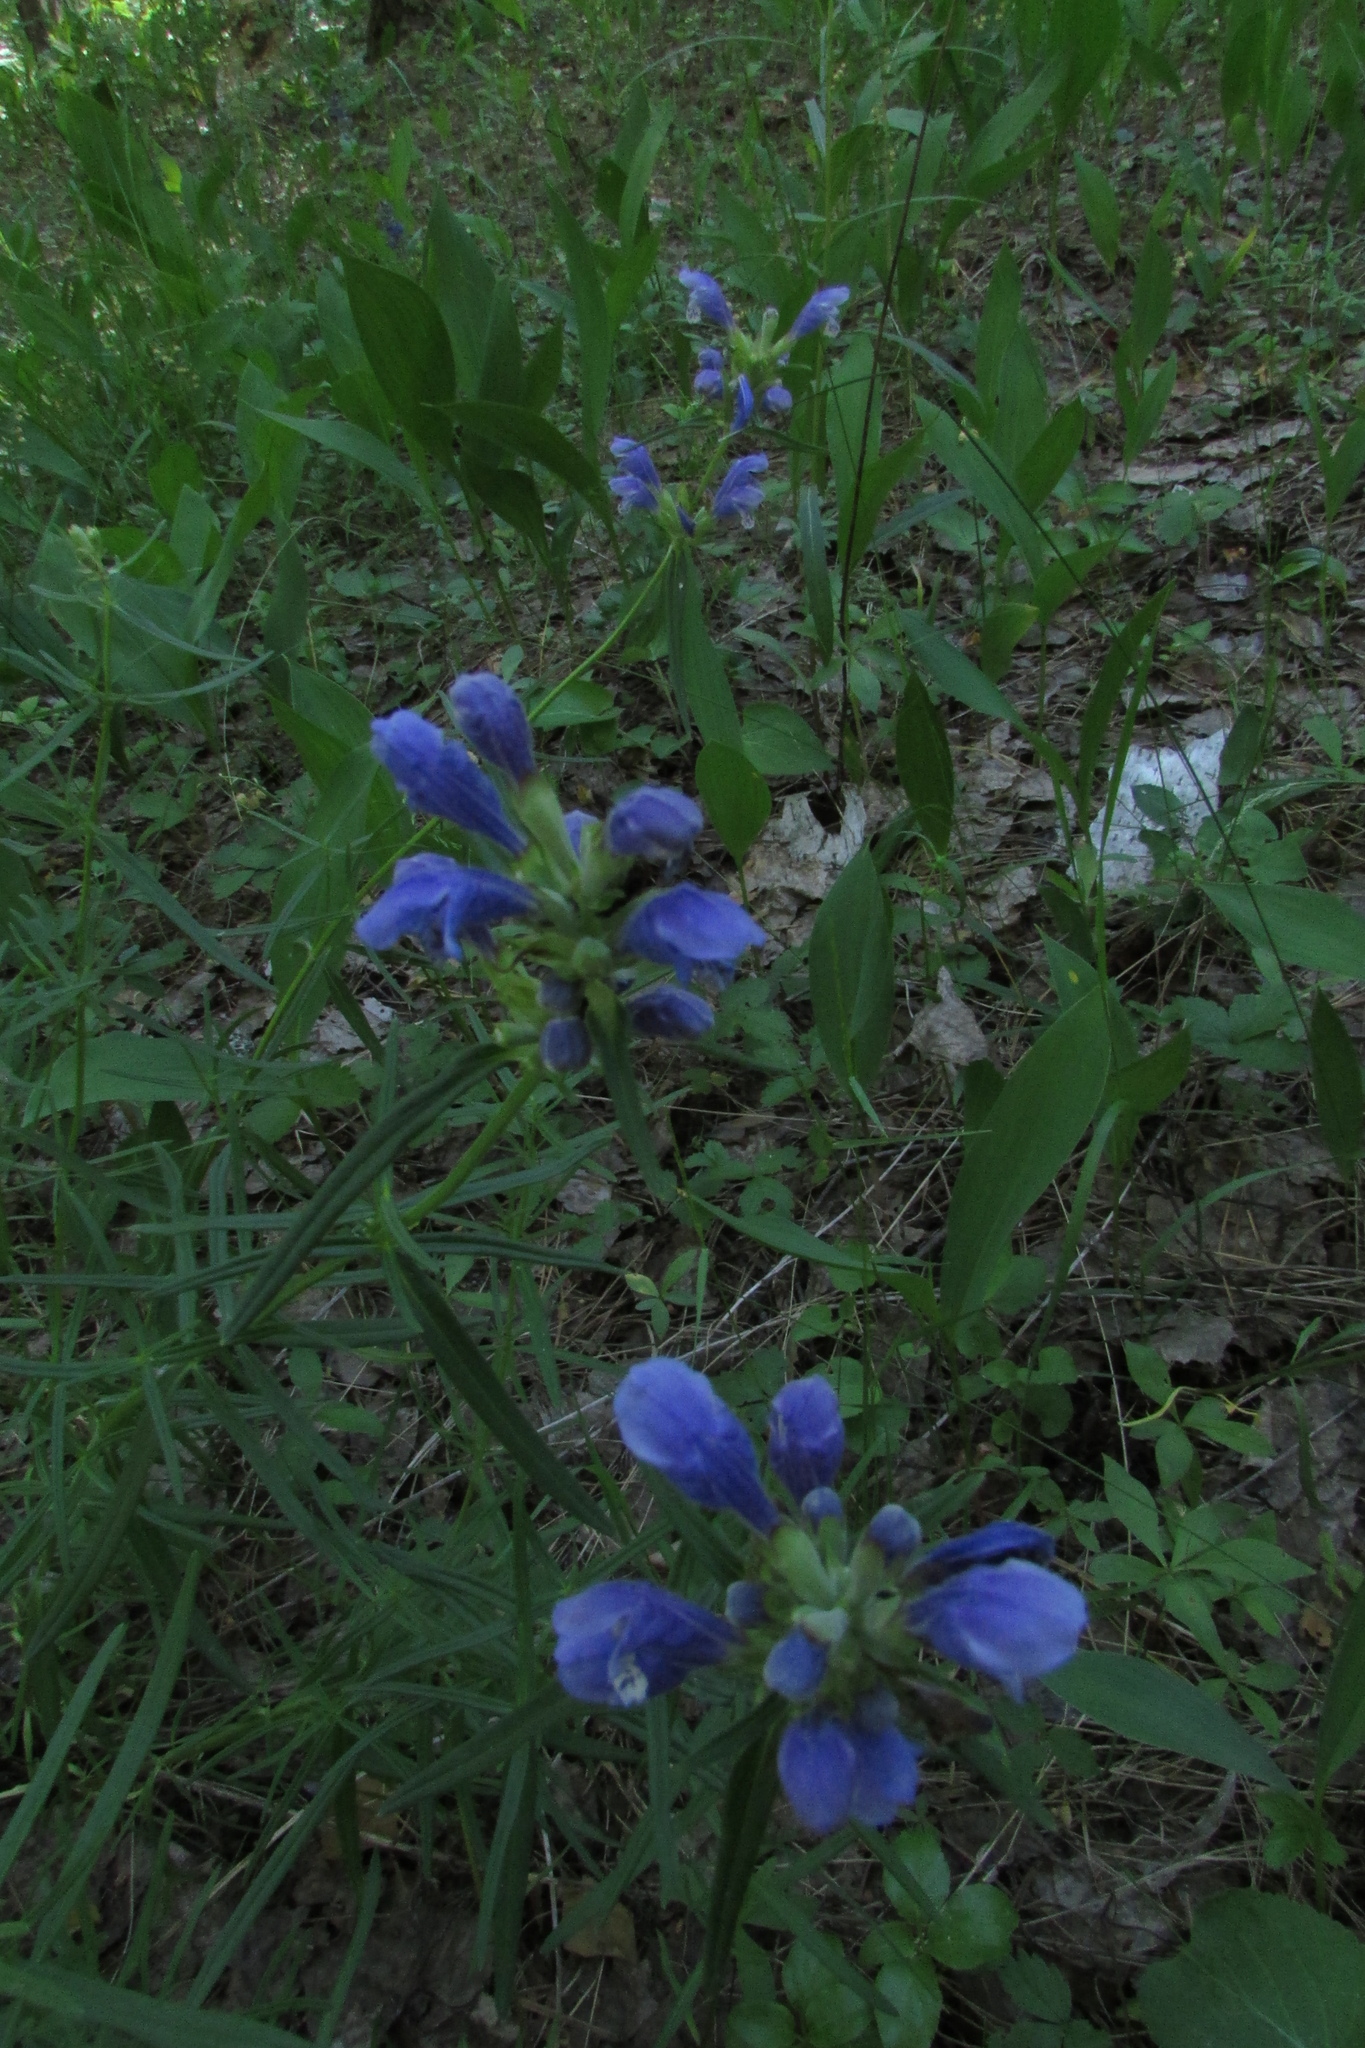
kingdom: Plantae
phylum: Tracheophyta
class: Magnoliopsida
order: Lamiales
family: Lamiaceae
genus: Dracocephalum
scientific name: Dracocephalum ruyschiana
